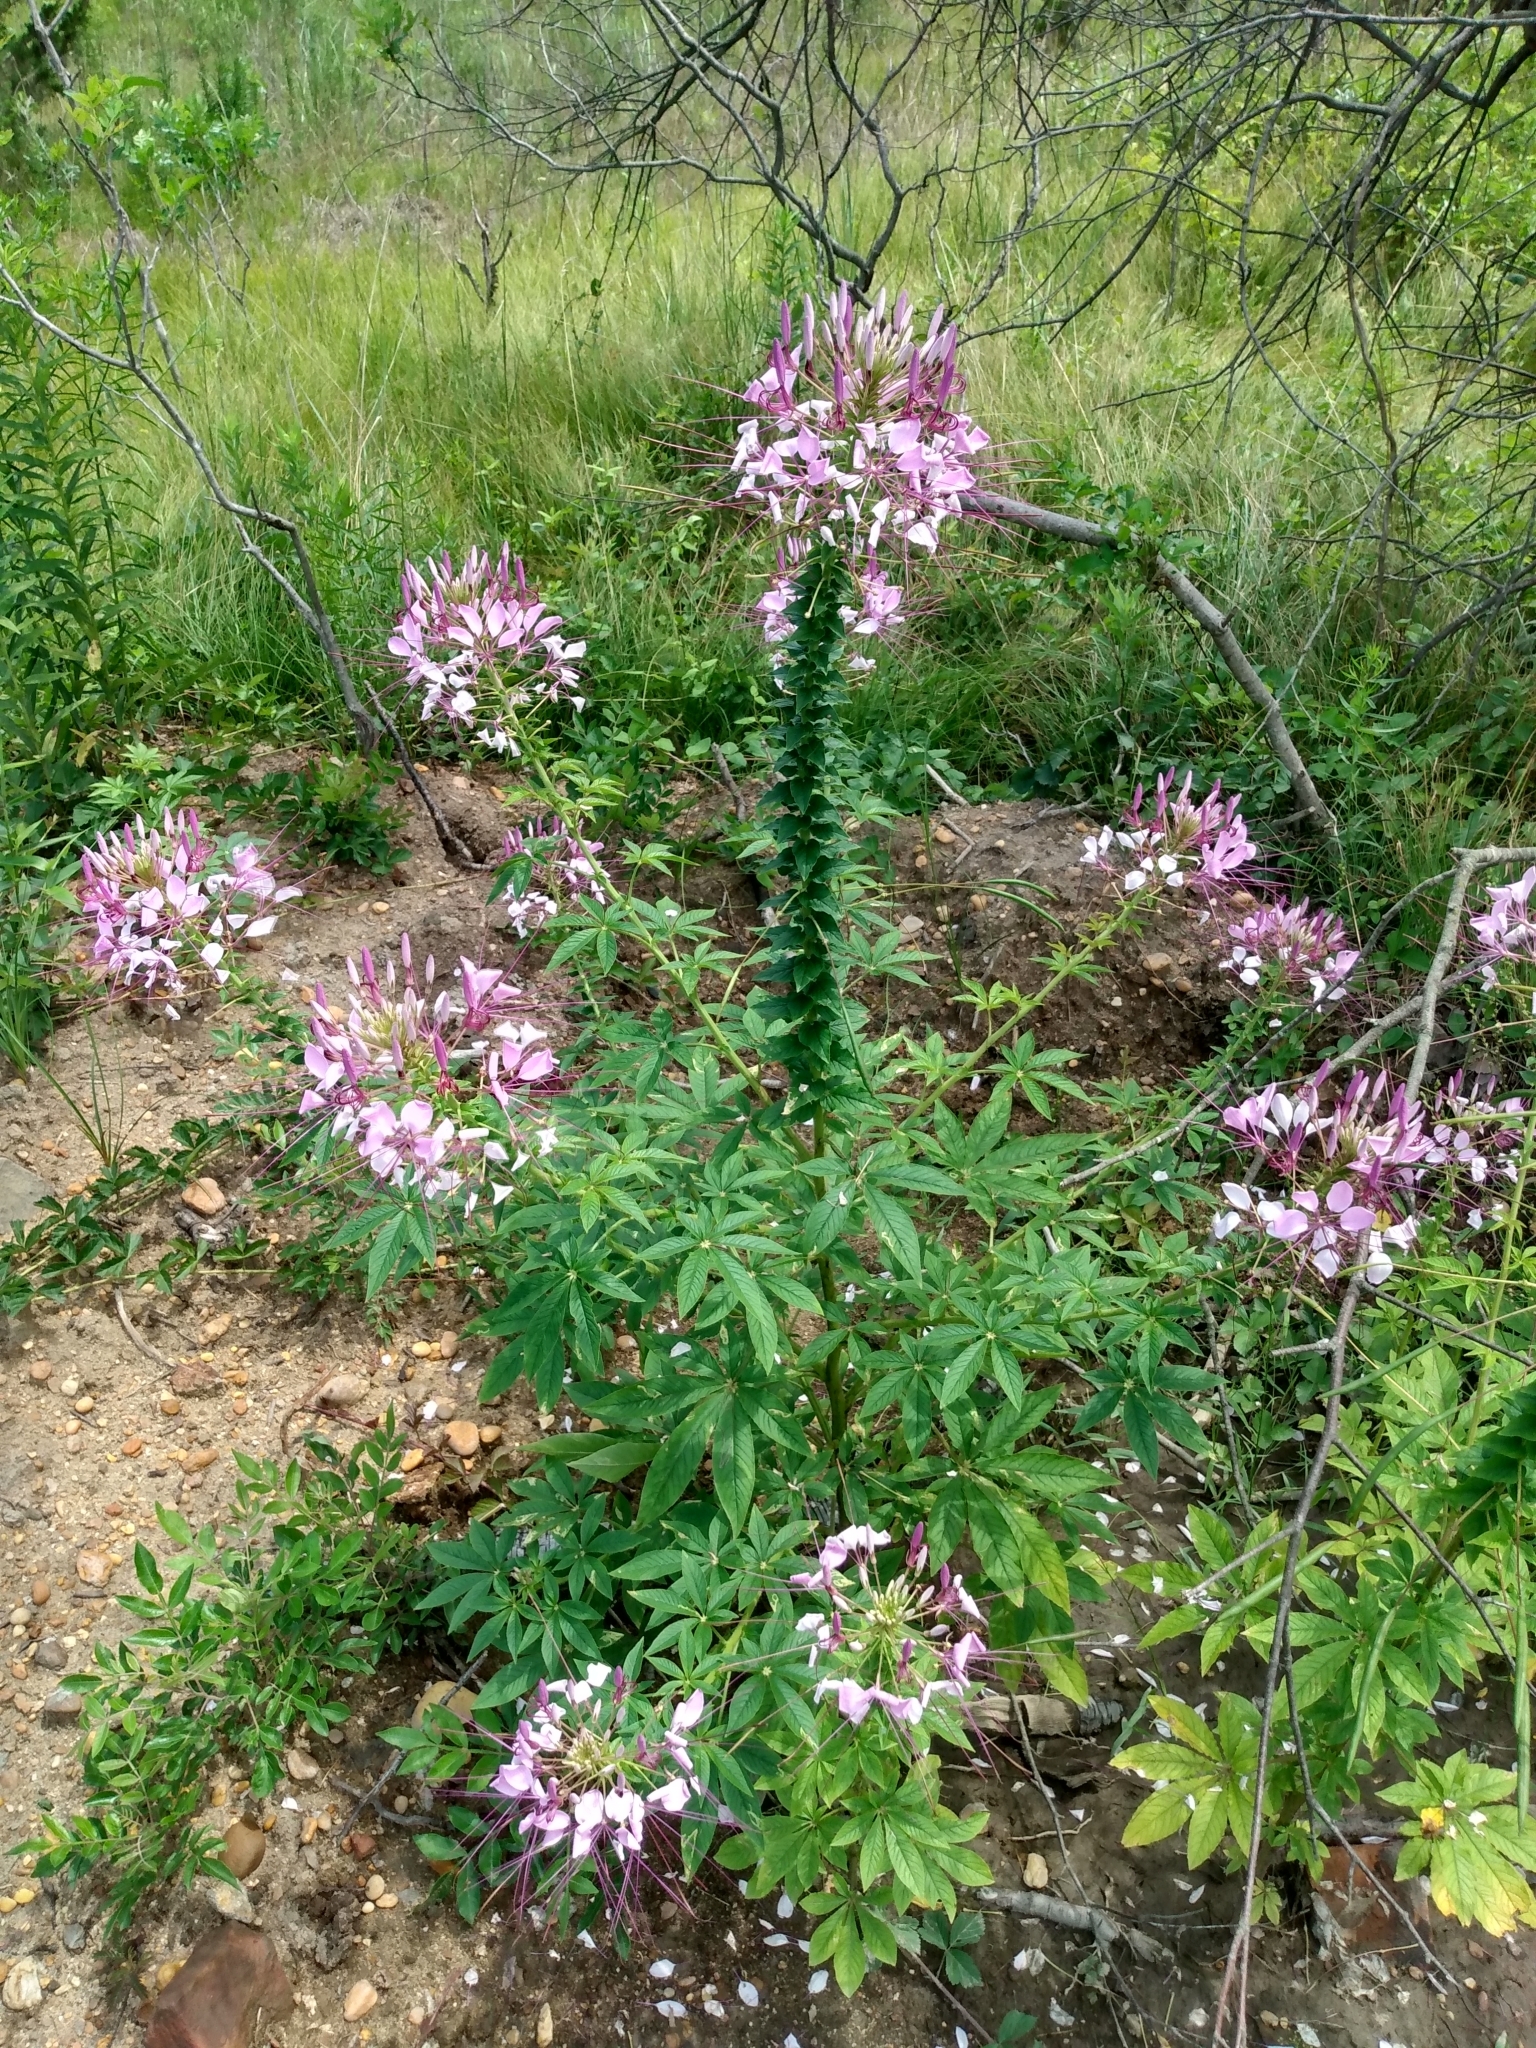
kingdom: Plantae
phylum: Tracheophyta
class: Magnoliopsida
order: Brassicales
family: Cleomaceae
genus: Tarenaya
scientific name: Tarenaya houtteana
